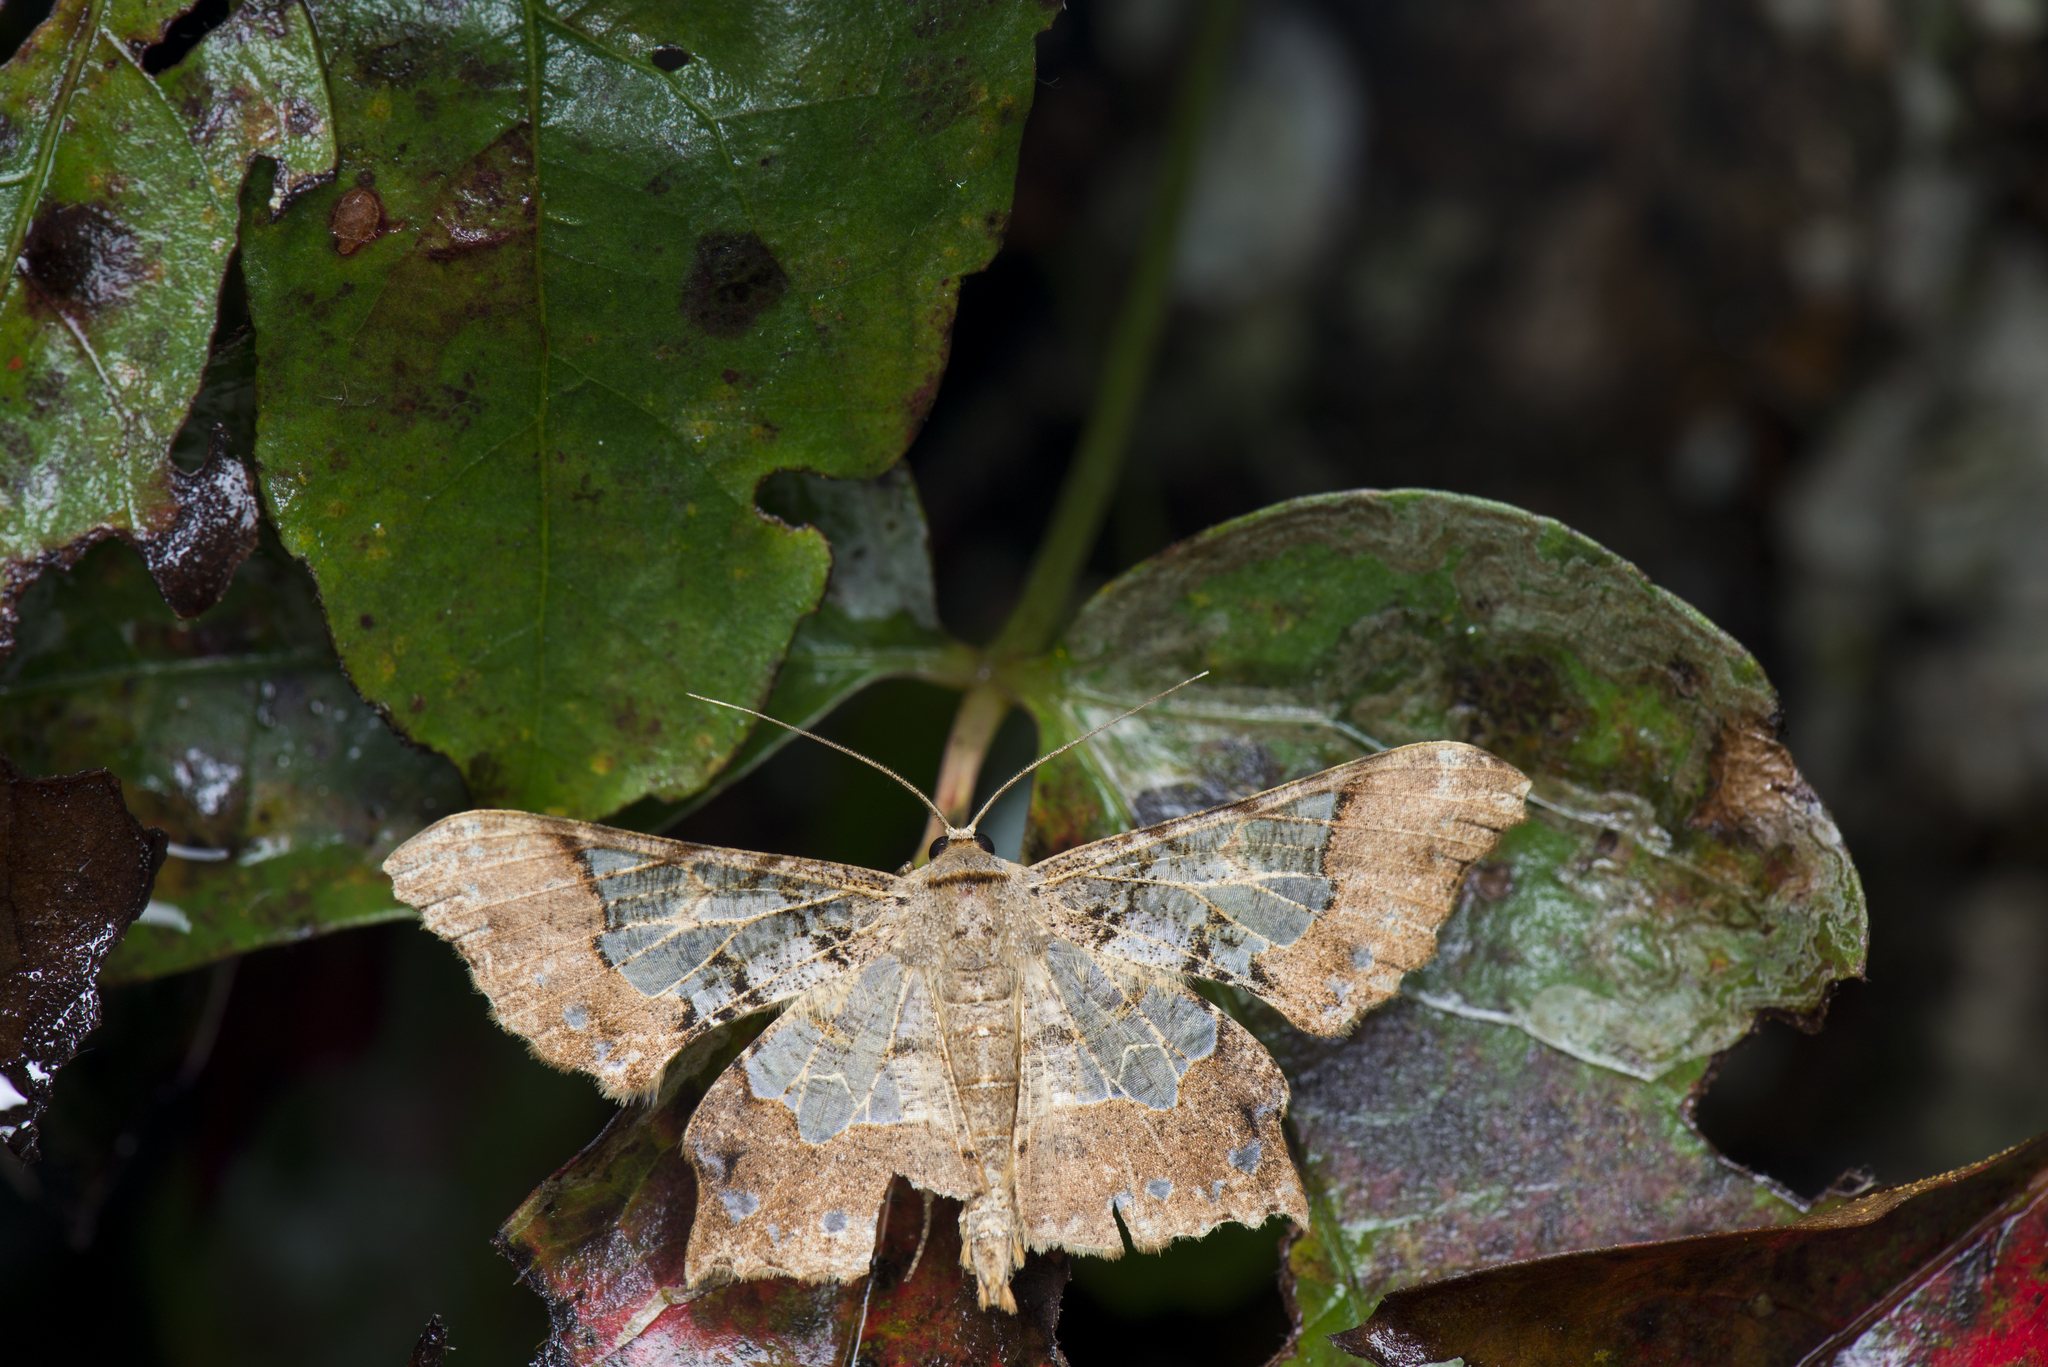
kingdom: Animalia
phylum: Arthropoda
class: Insecta
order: Lepidoptera
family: Geometridae
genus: Krananda
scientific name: Krananda semihyalina
